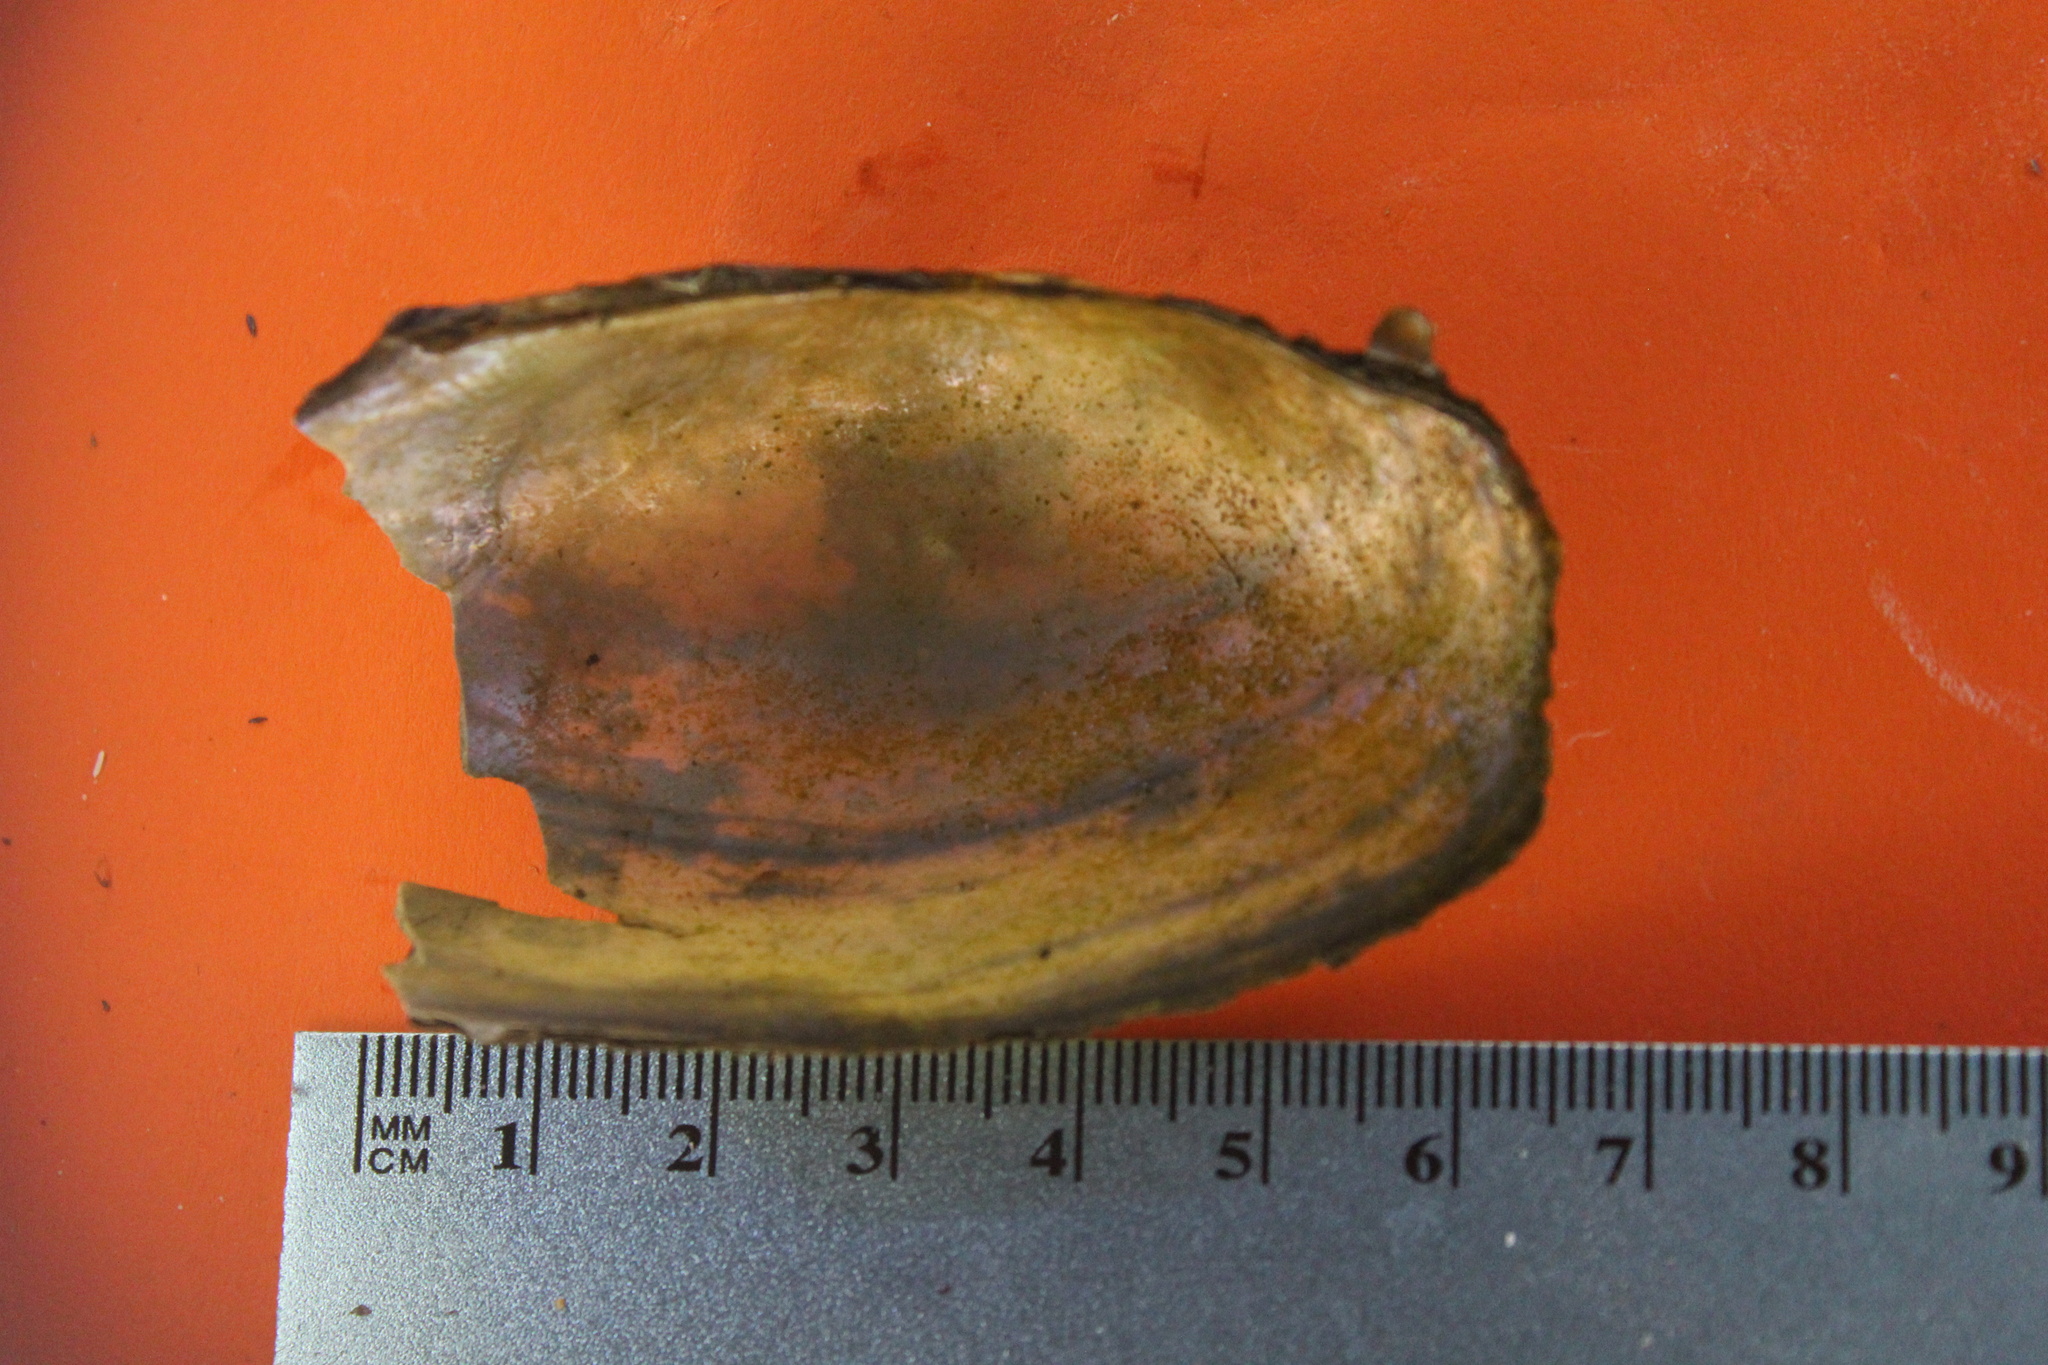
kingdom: Animalia
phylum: Mollusca
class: Bivalvia
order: Unionida
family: Unionidae
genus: Utterbackia
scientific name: Utterbackia imbecillis
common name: Paper pondshell
